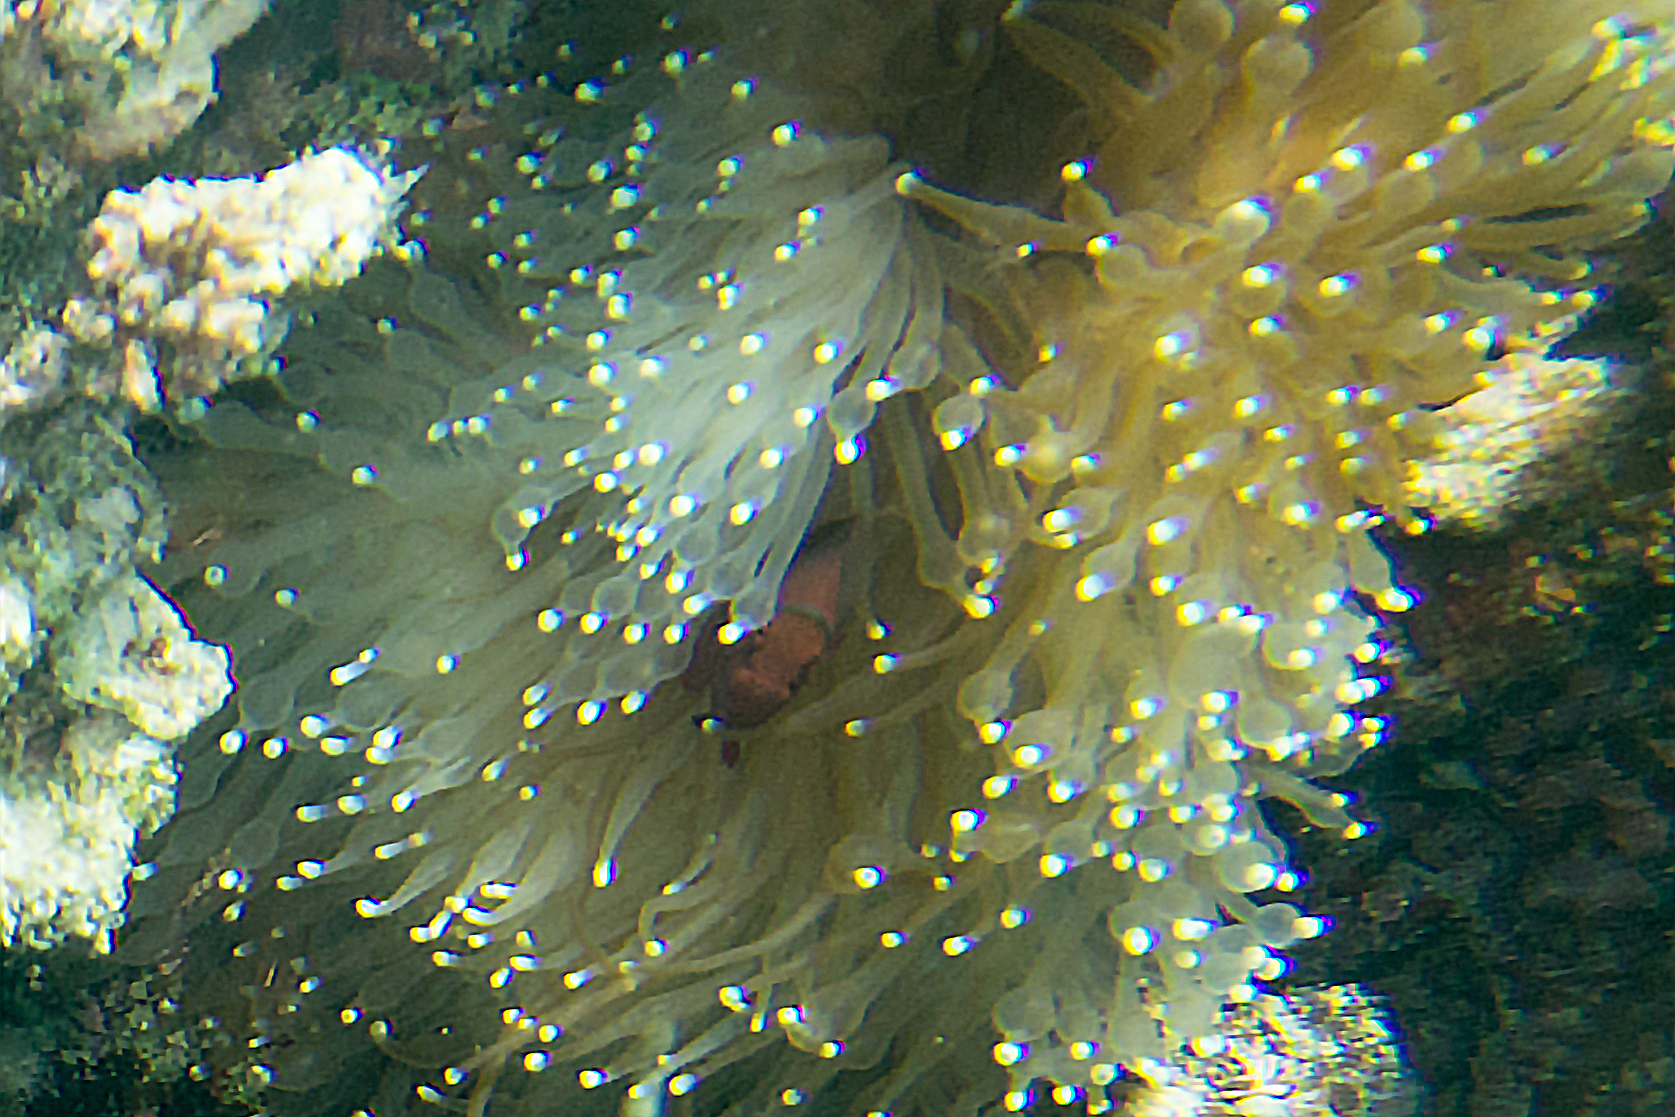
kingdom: Animalia
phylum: Chordata
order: Perciformes
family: Pomacentridae
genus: Premnas
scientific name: Premnas biaculeatus
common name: Spinecheek anemonefish
